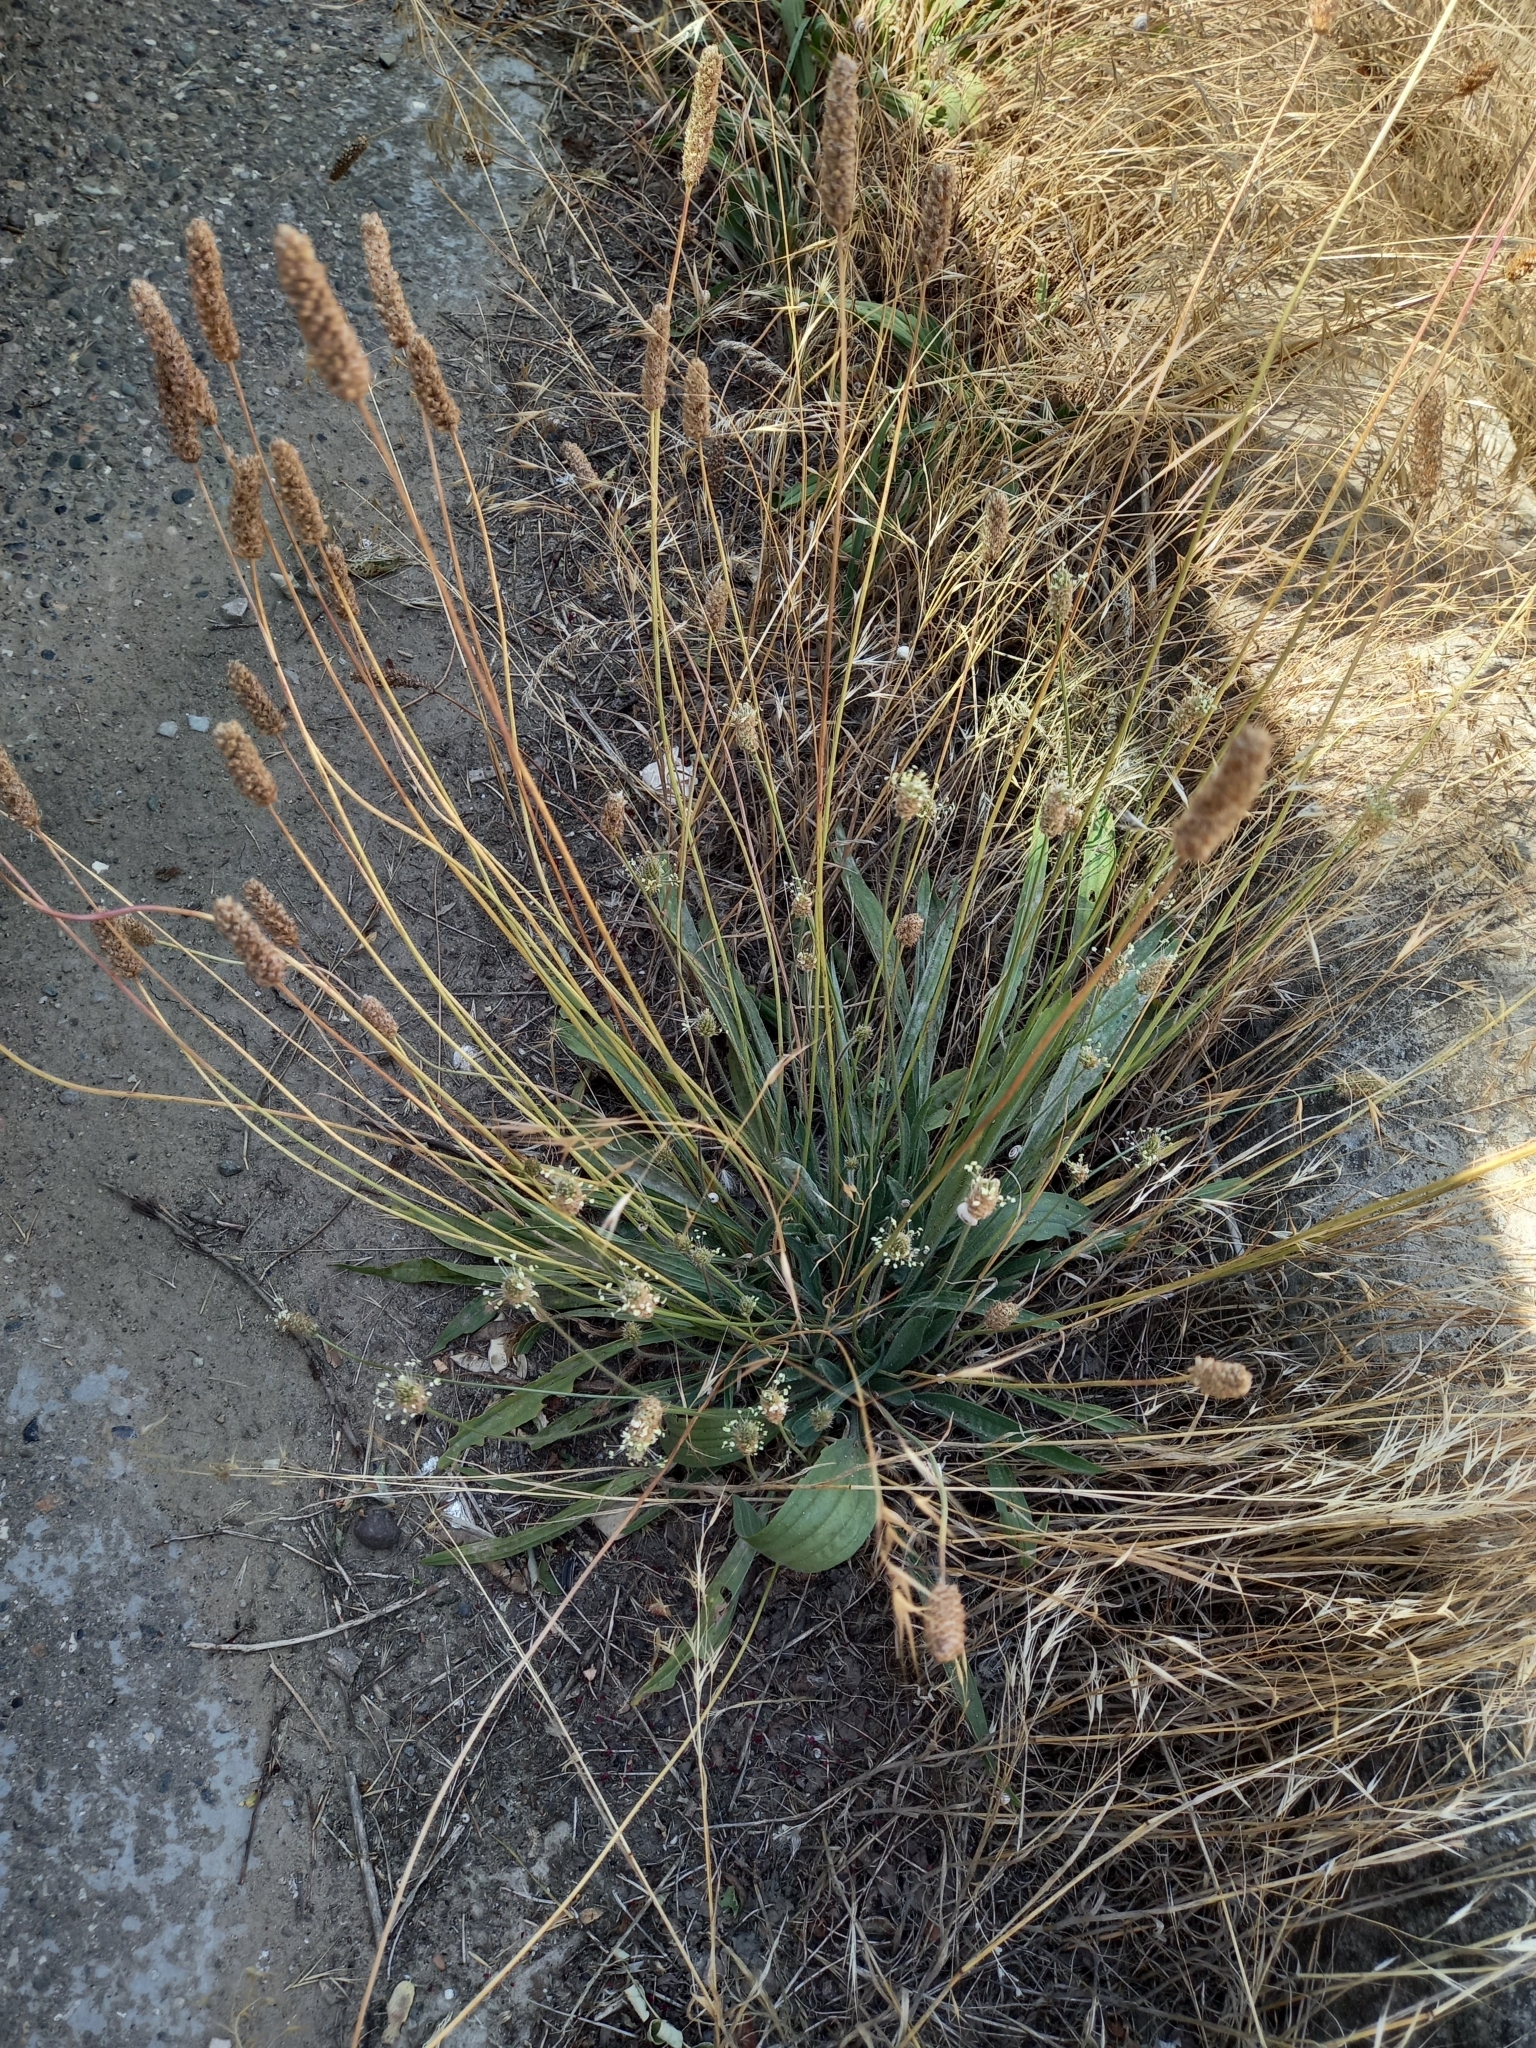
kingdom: Plantae
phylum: Tracheophyta
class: Magnoliopsida
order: Lamiales
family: Plantaginaceae
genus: Plantago
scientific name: Plantago lanceolata
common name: Ribwort plantain
